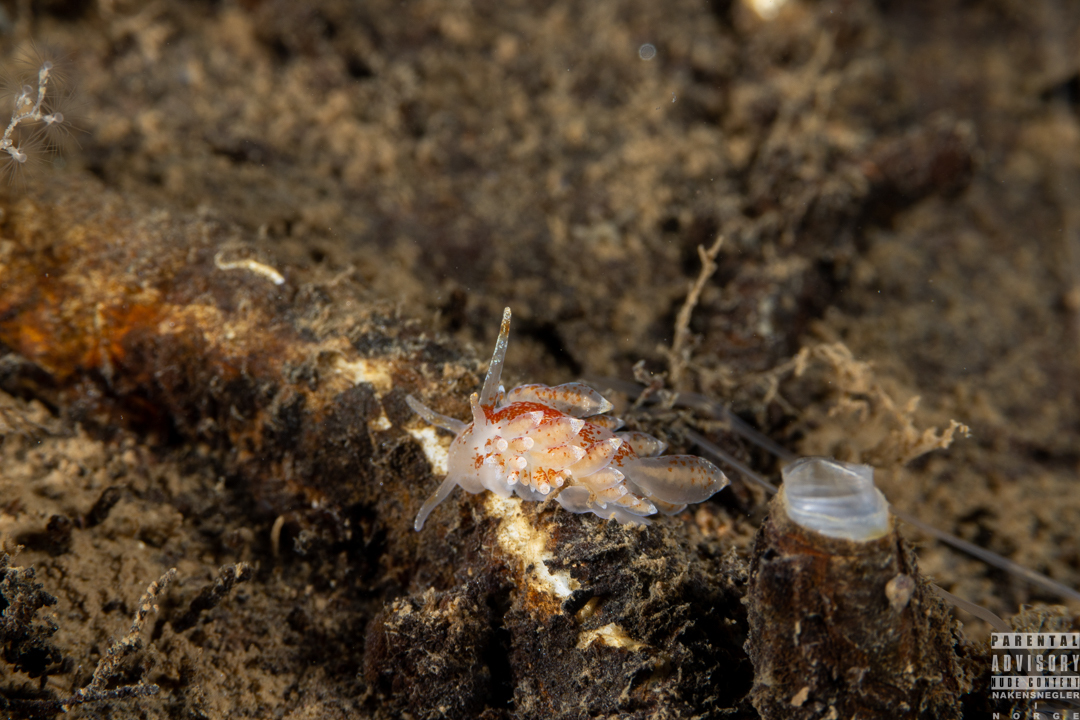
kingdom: Animalia
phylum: Mollusca
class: Gastropoda
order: Nudibranchia
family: Eubranchidae
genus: Amphorina
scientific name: Amphorina pallida
